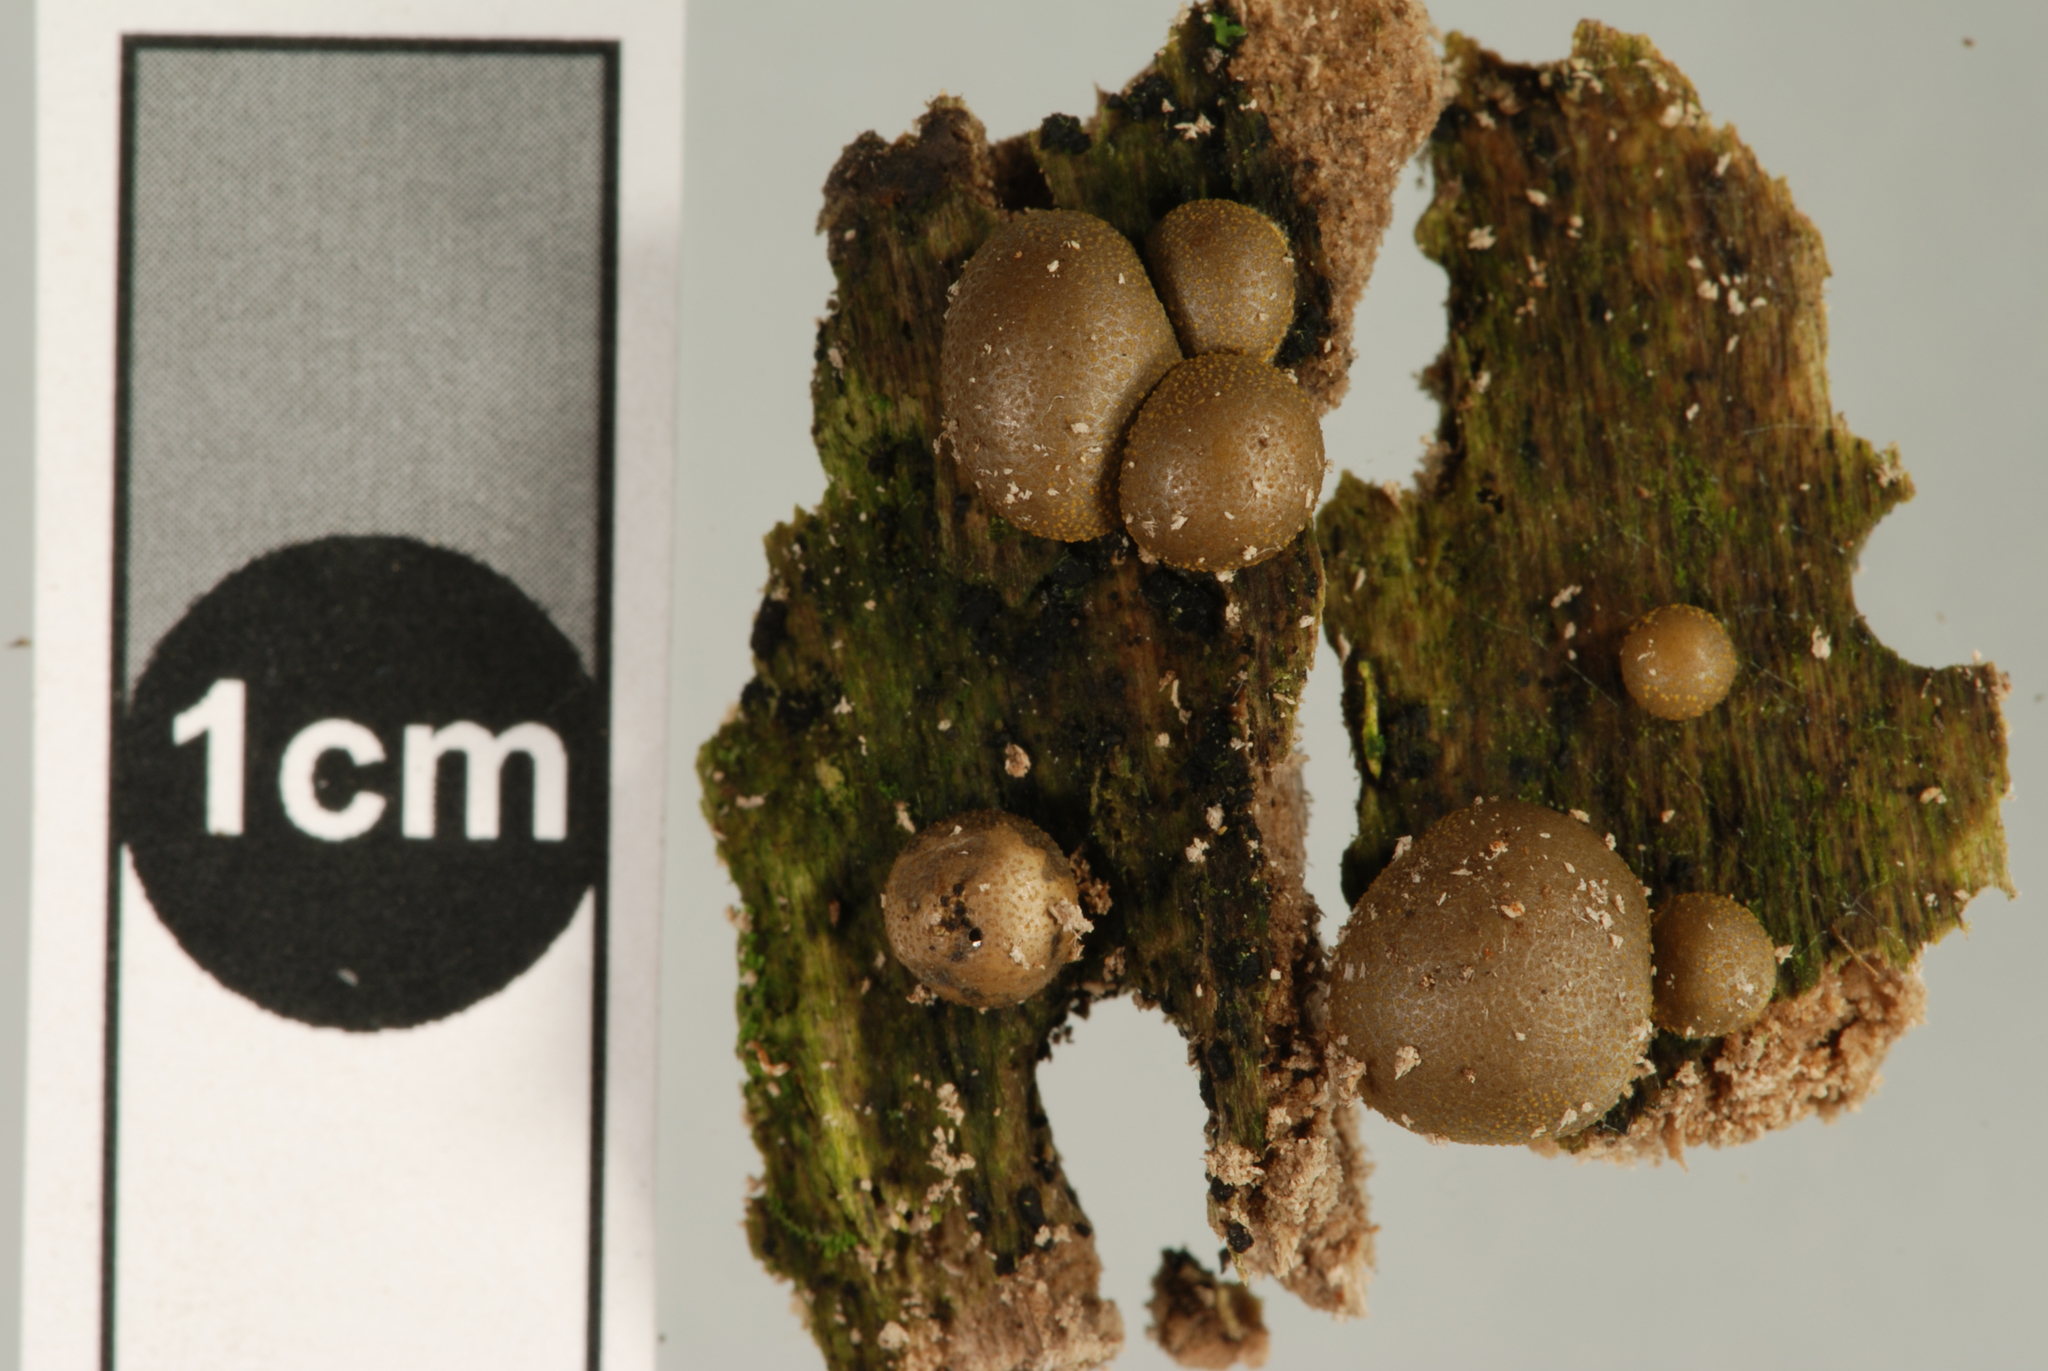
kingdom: Protozoa
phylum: Mycetozoa
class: Myxomycetes
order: Cribrariales
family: Tubiferaceae
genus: Lycogala
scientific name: Lycogala epidendrum
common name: Wolf's milk
